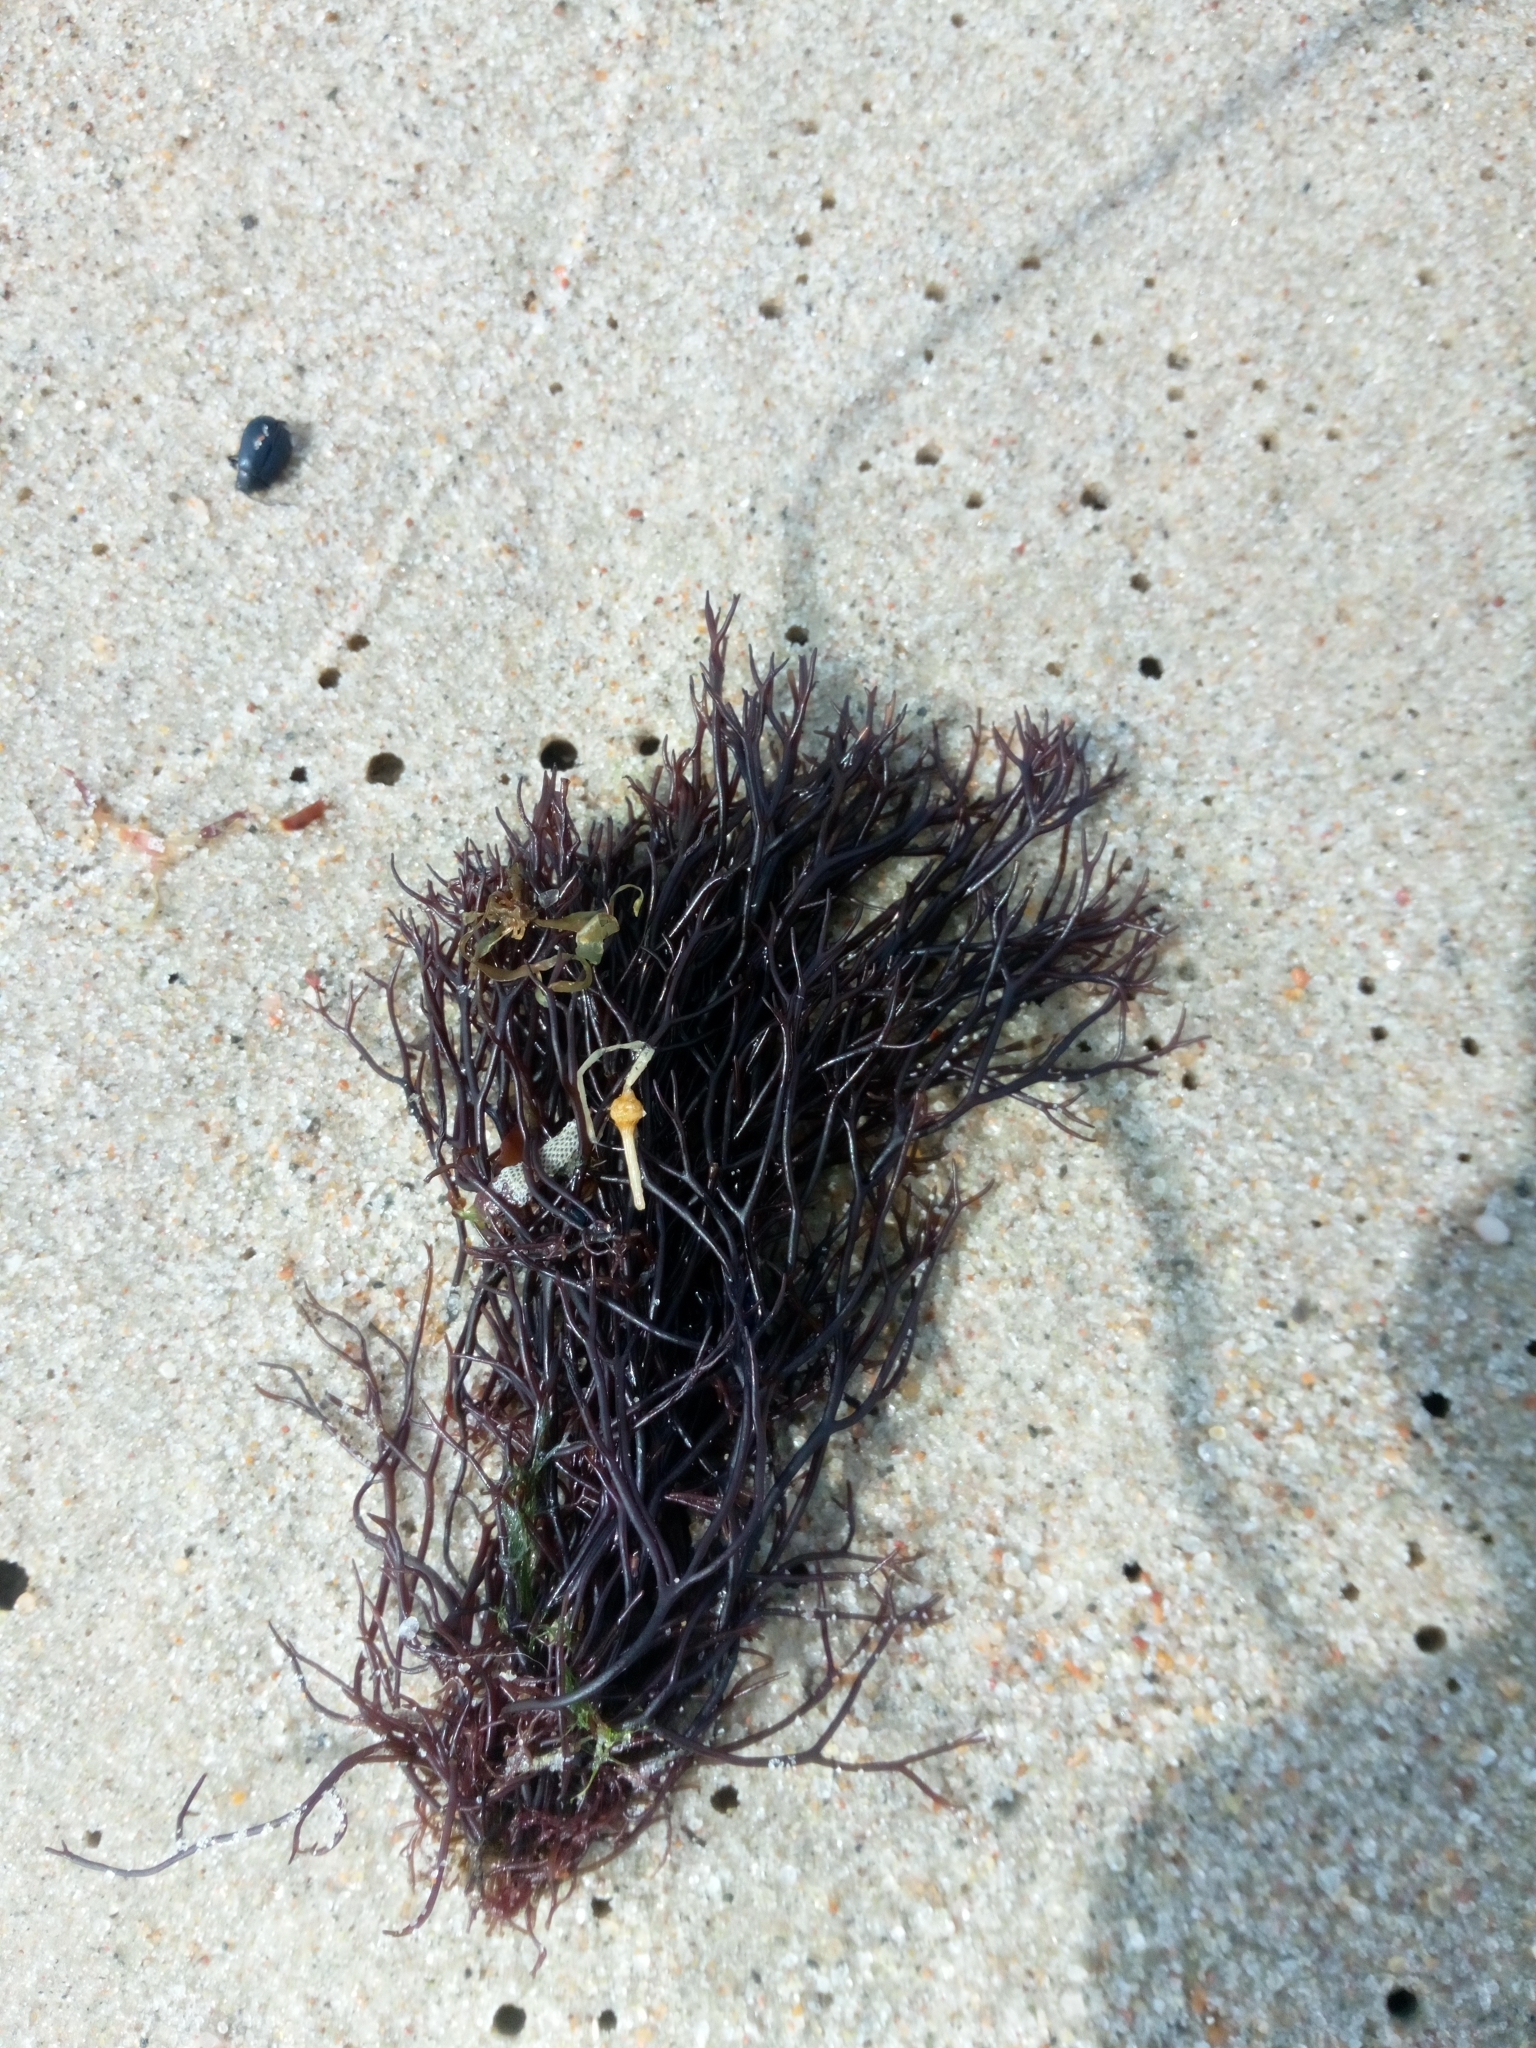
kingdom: Plantae
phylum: Rhodophyta
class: Florideophyceae
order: Gigartinales
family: Furcellariaceae
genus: Furcellaria
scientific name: Furcellaria lumbricalis
